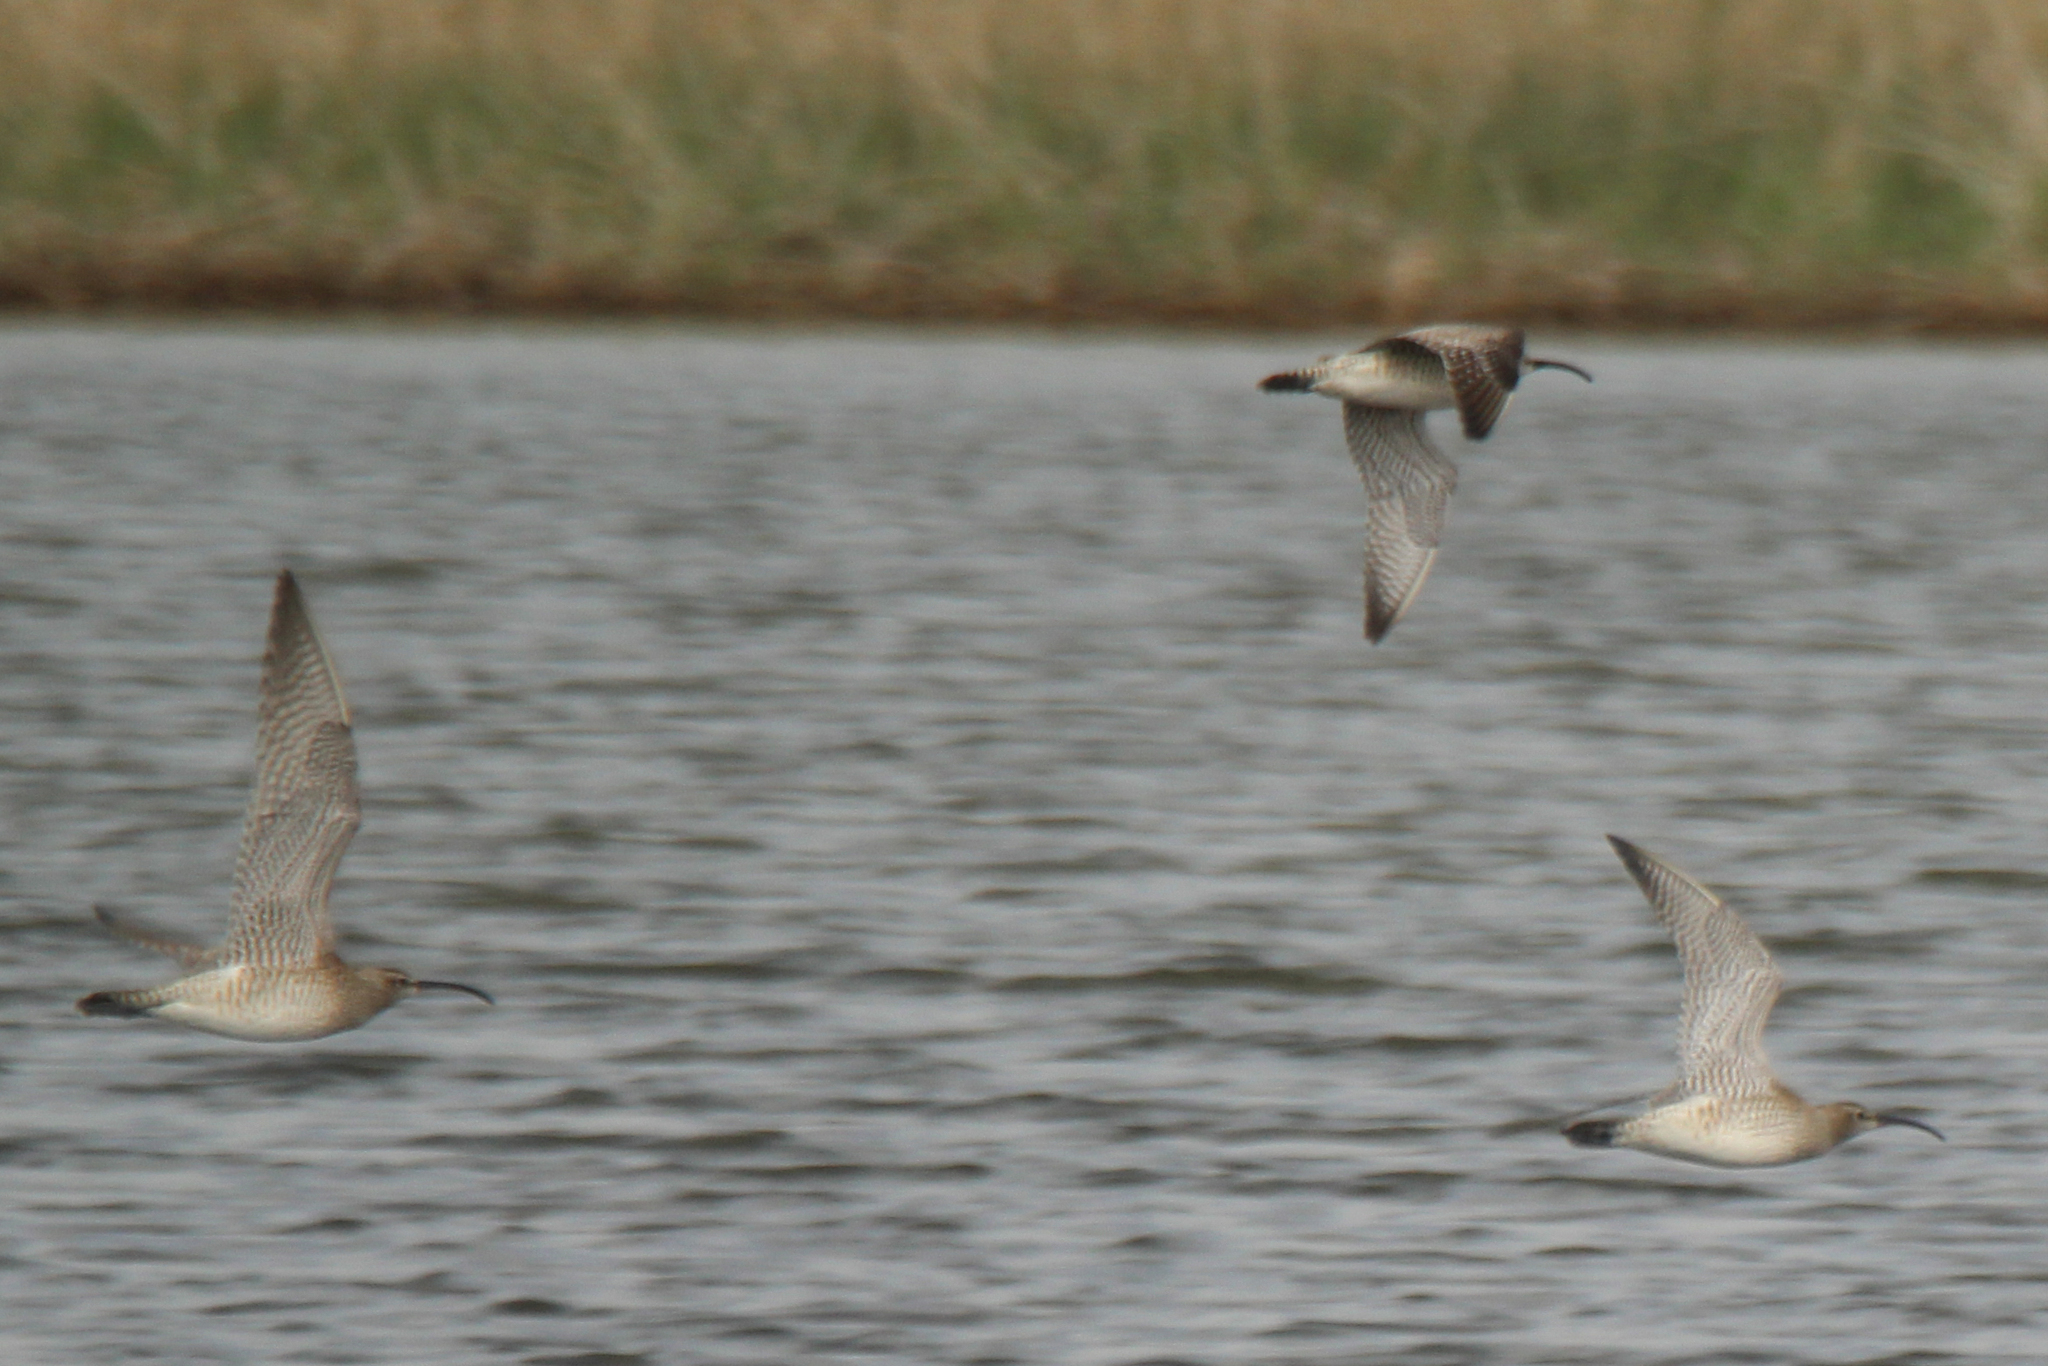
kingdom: Animalia
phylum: Chordata
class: Aves
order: Charadriiformes
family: Scolopacidae
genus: Numenius
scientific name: Numenius phaeopus
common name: Whimbrel
